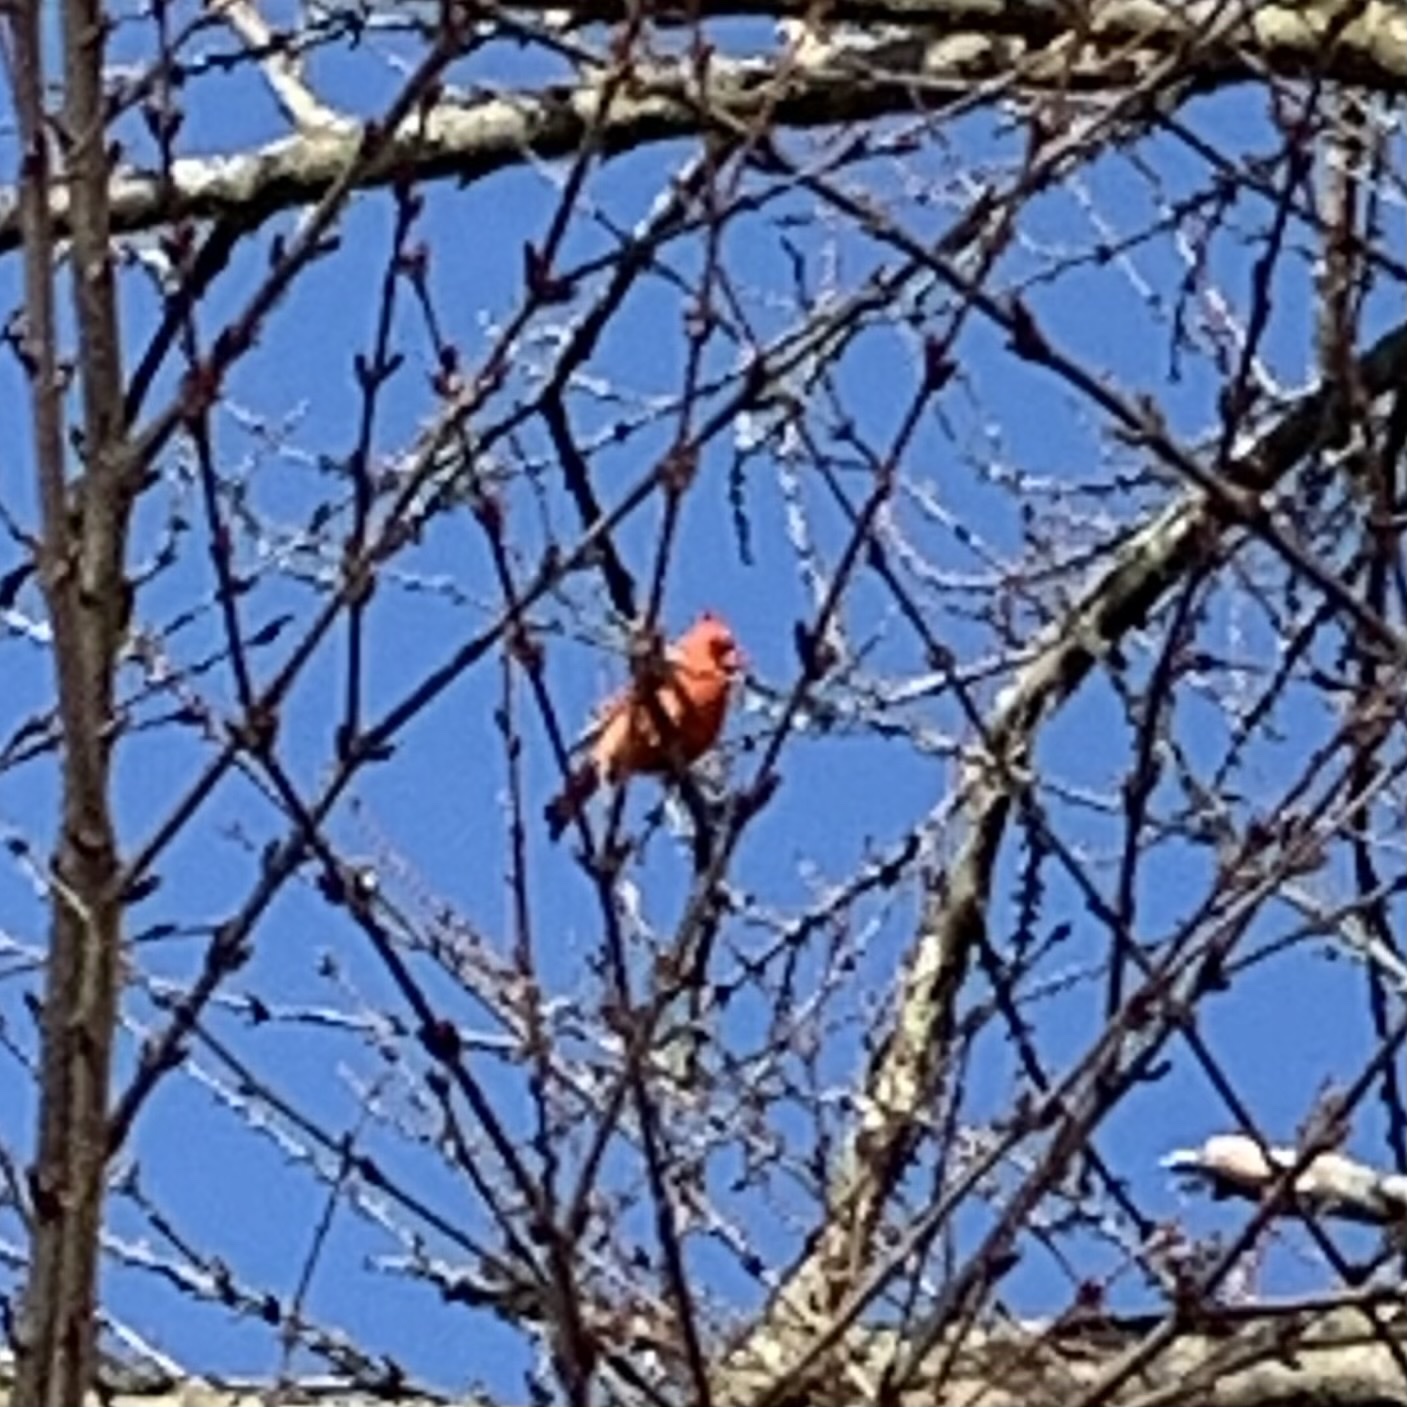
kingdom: Animalia
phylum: Chordata
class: Aves
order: Passeriformes
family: Cardinalidae
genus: Cardinalis
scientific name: Cardinalis cardinalis
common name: Northern cardinal
